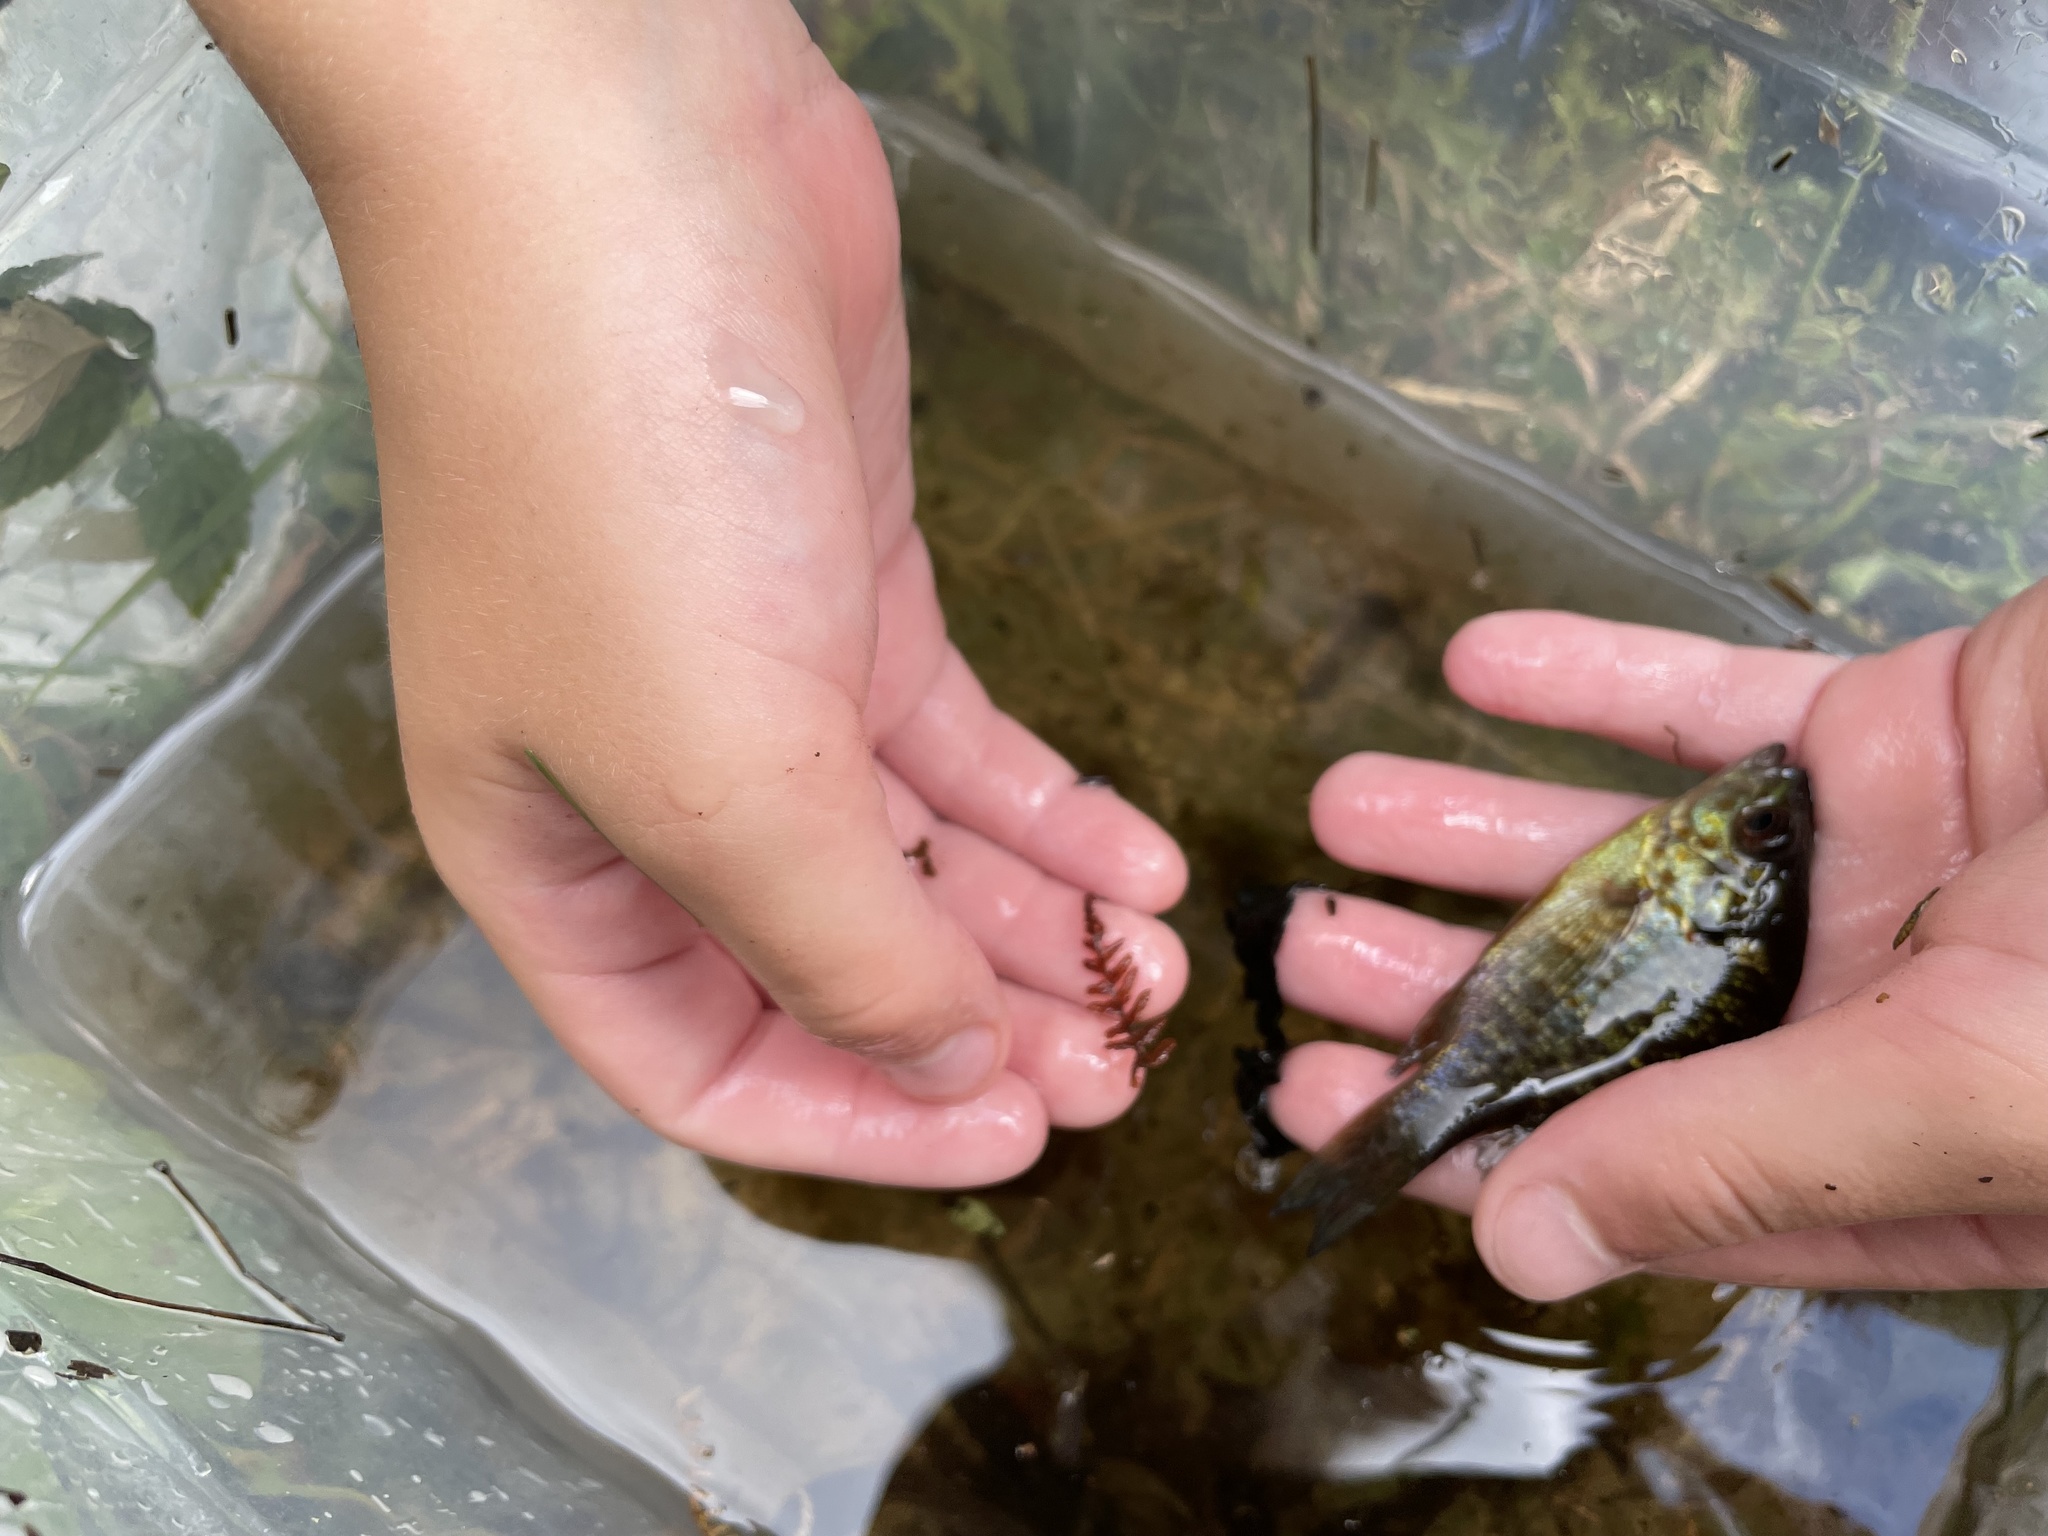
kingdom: Animalia
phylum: Chordata
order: Perciformes
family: Centrarchidae
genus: Lepomis
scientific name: Lepomis gibbosus
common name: Pumpkinseed
